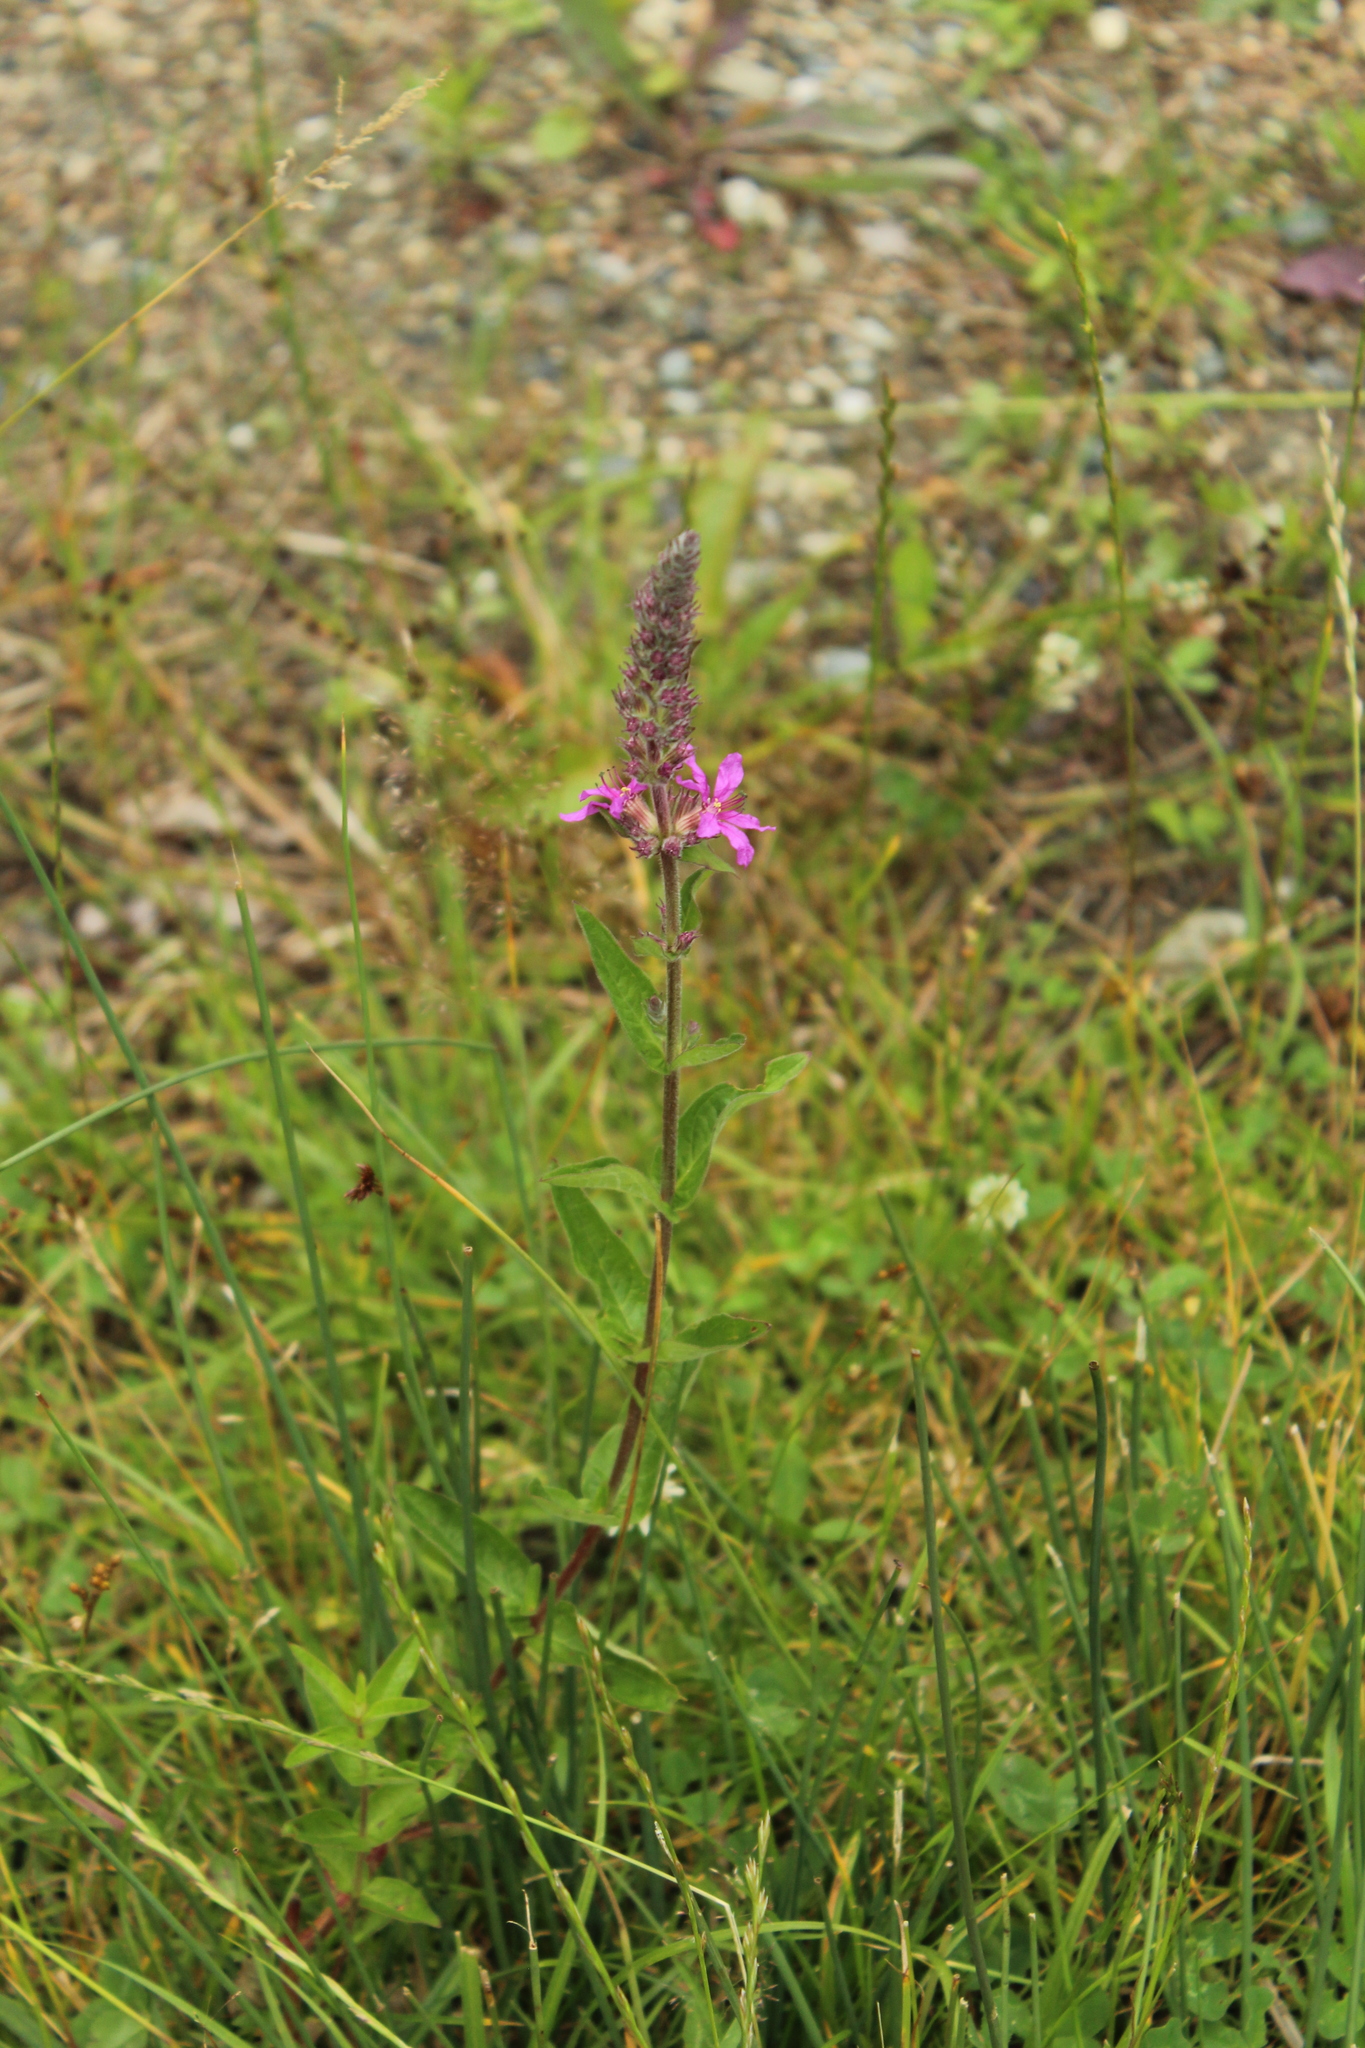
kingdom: Plantae
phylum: Tracheophyta
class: Magnoliopsida
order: Myrtales
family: Lythraceae
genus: Lythrum
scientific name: Lythrum salicaria
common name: Purple loosestrife
